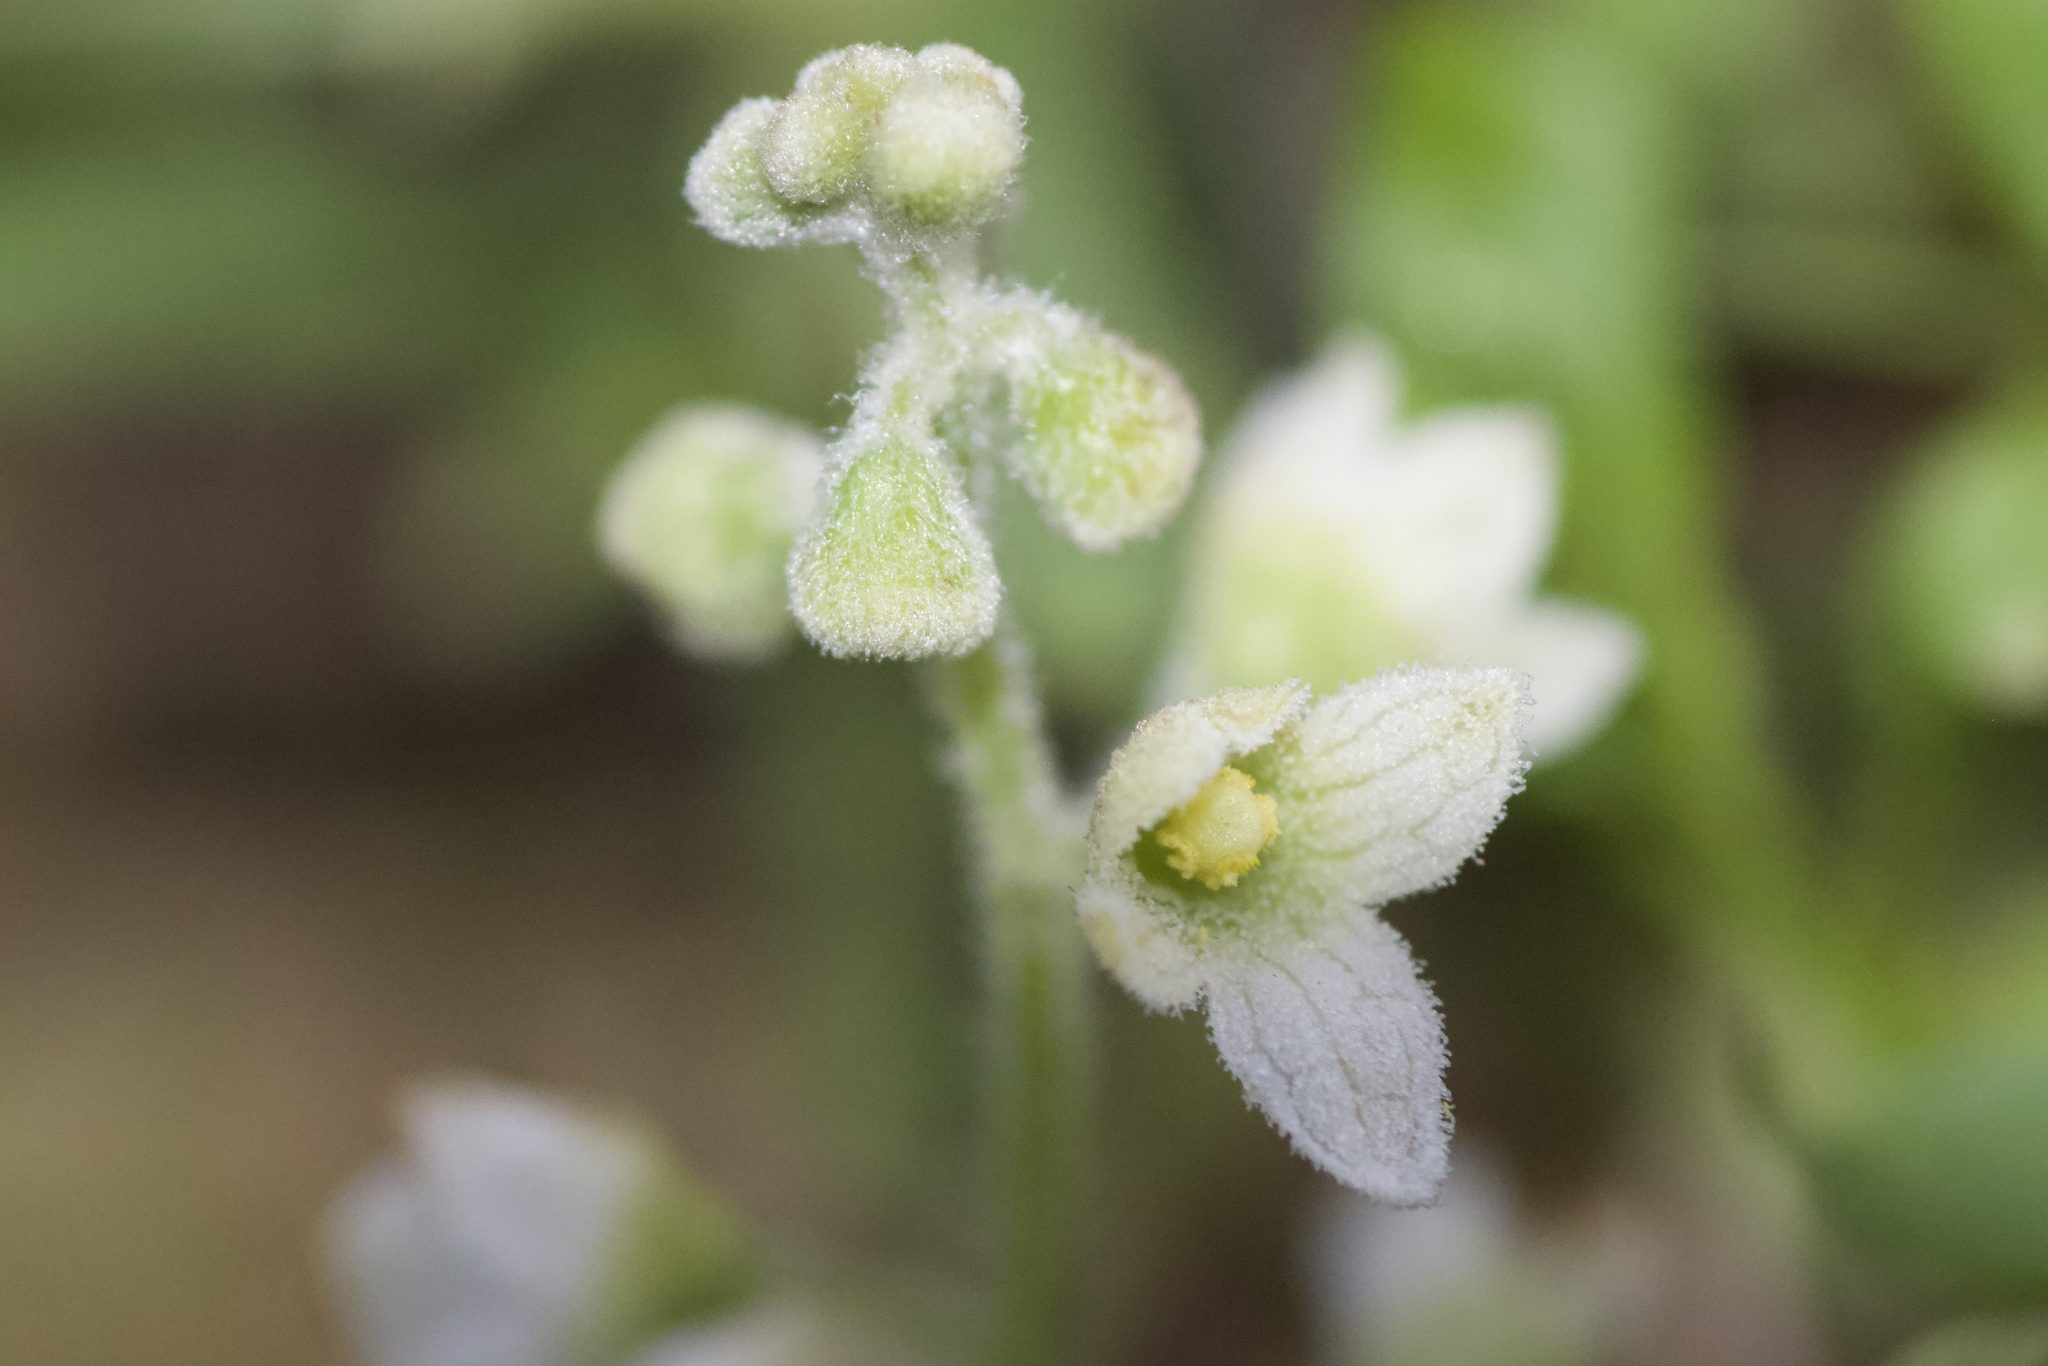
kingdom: Plantae
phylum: Tracheophyta
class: Magnoliopsida
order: Cucurbitales
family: Cucurbitaceae
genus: Marah
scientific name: Marah macrocarpa
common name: Cucamonga manroot
